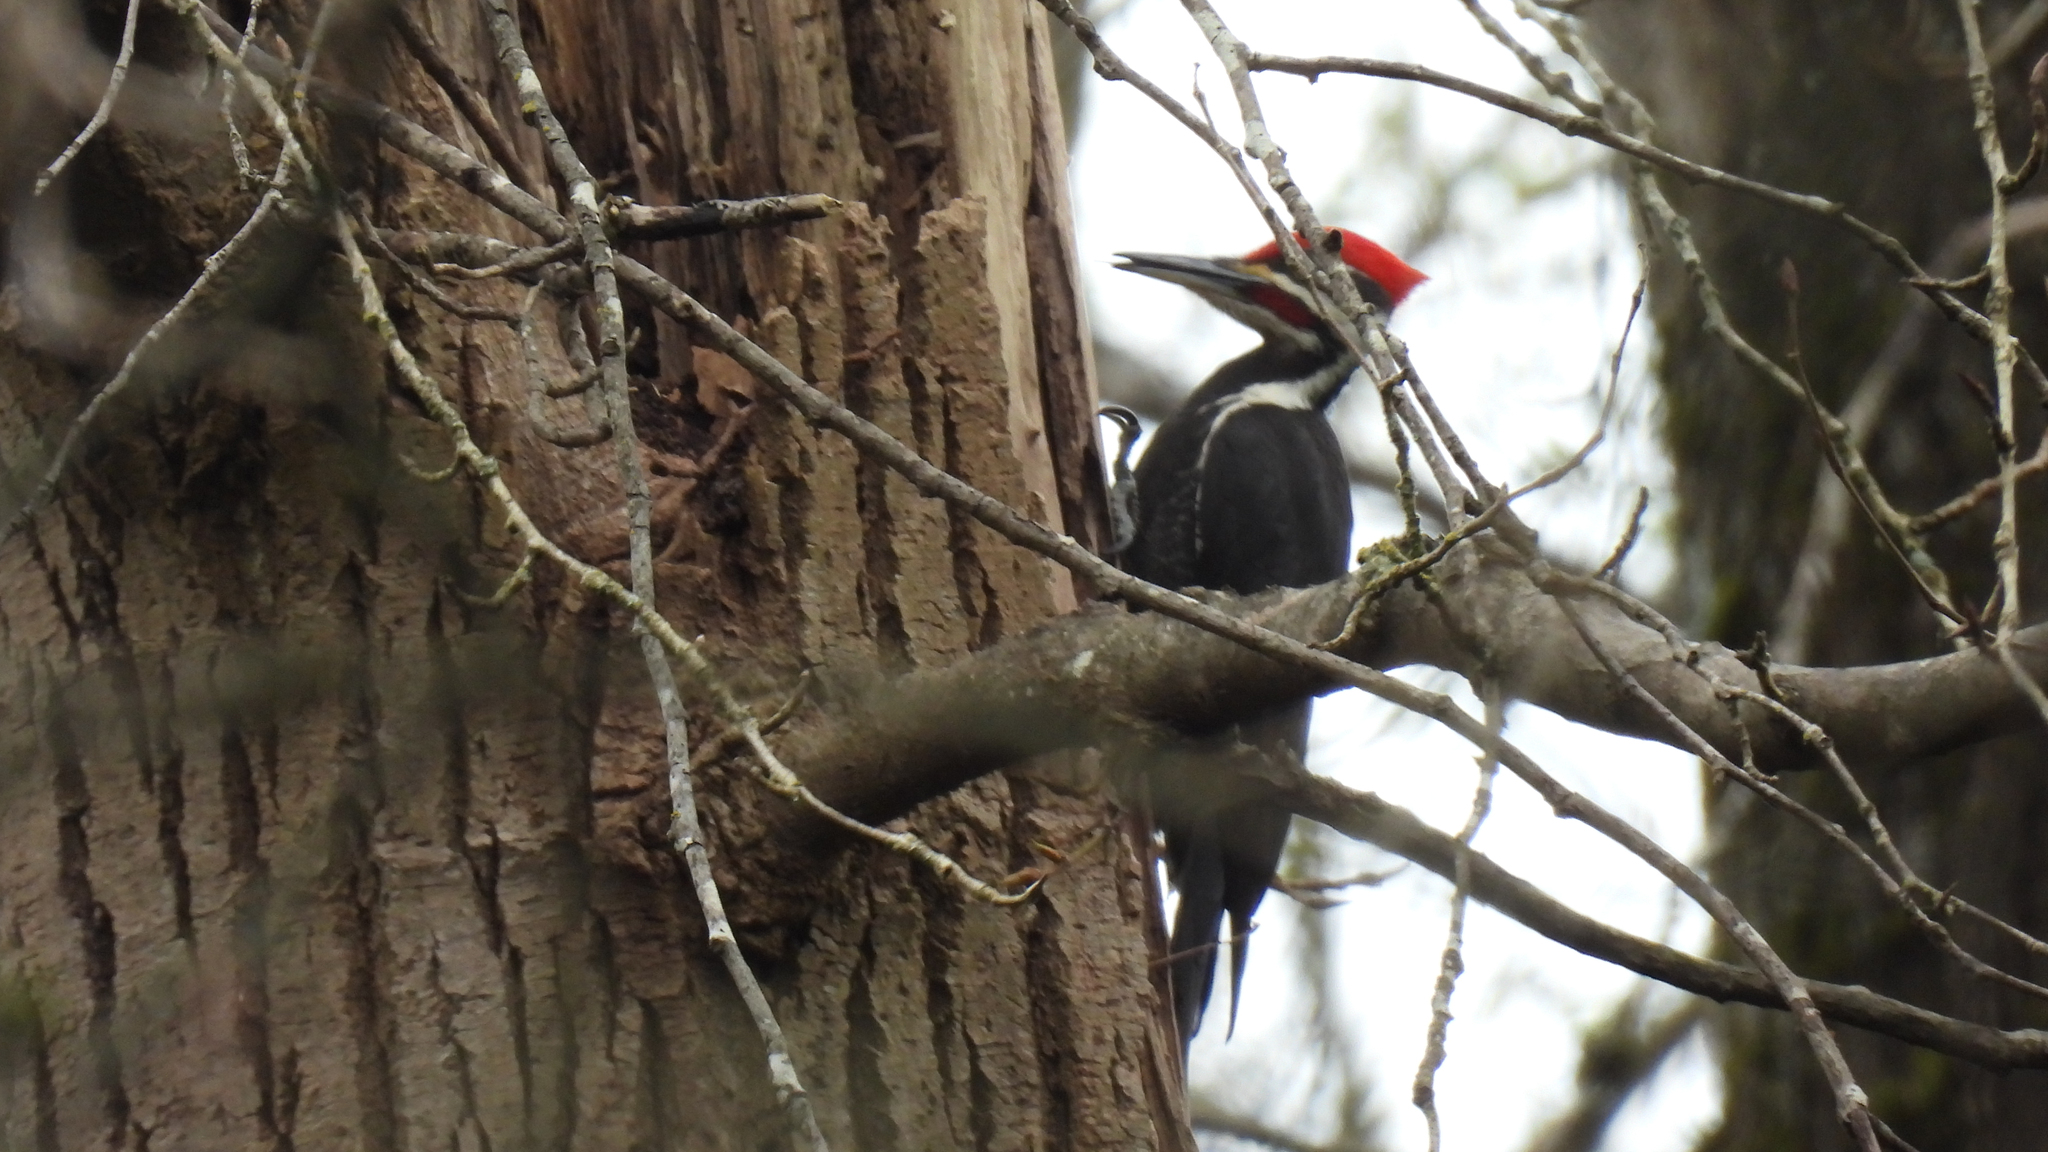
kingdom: Animalia
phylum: Chordata
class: Aves
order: Piciformes
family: Picidae
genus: Dryocopus
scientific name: Dryocopus pileatus
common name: Pileated woodpecker
